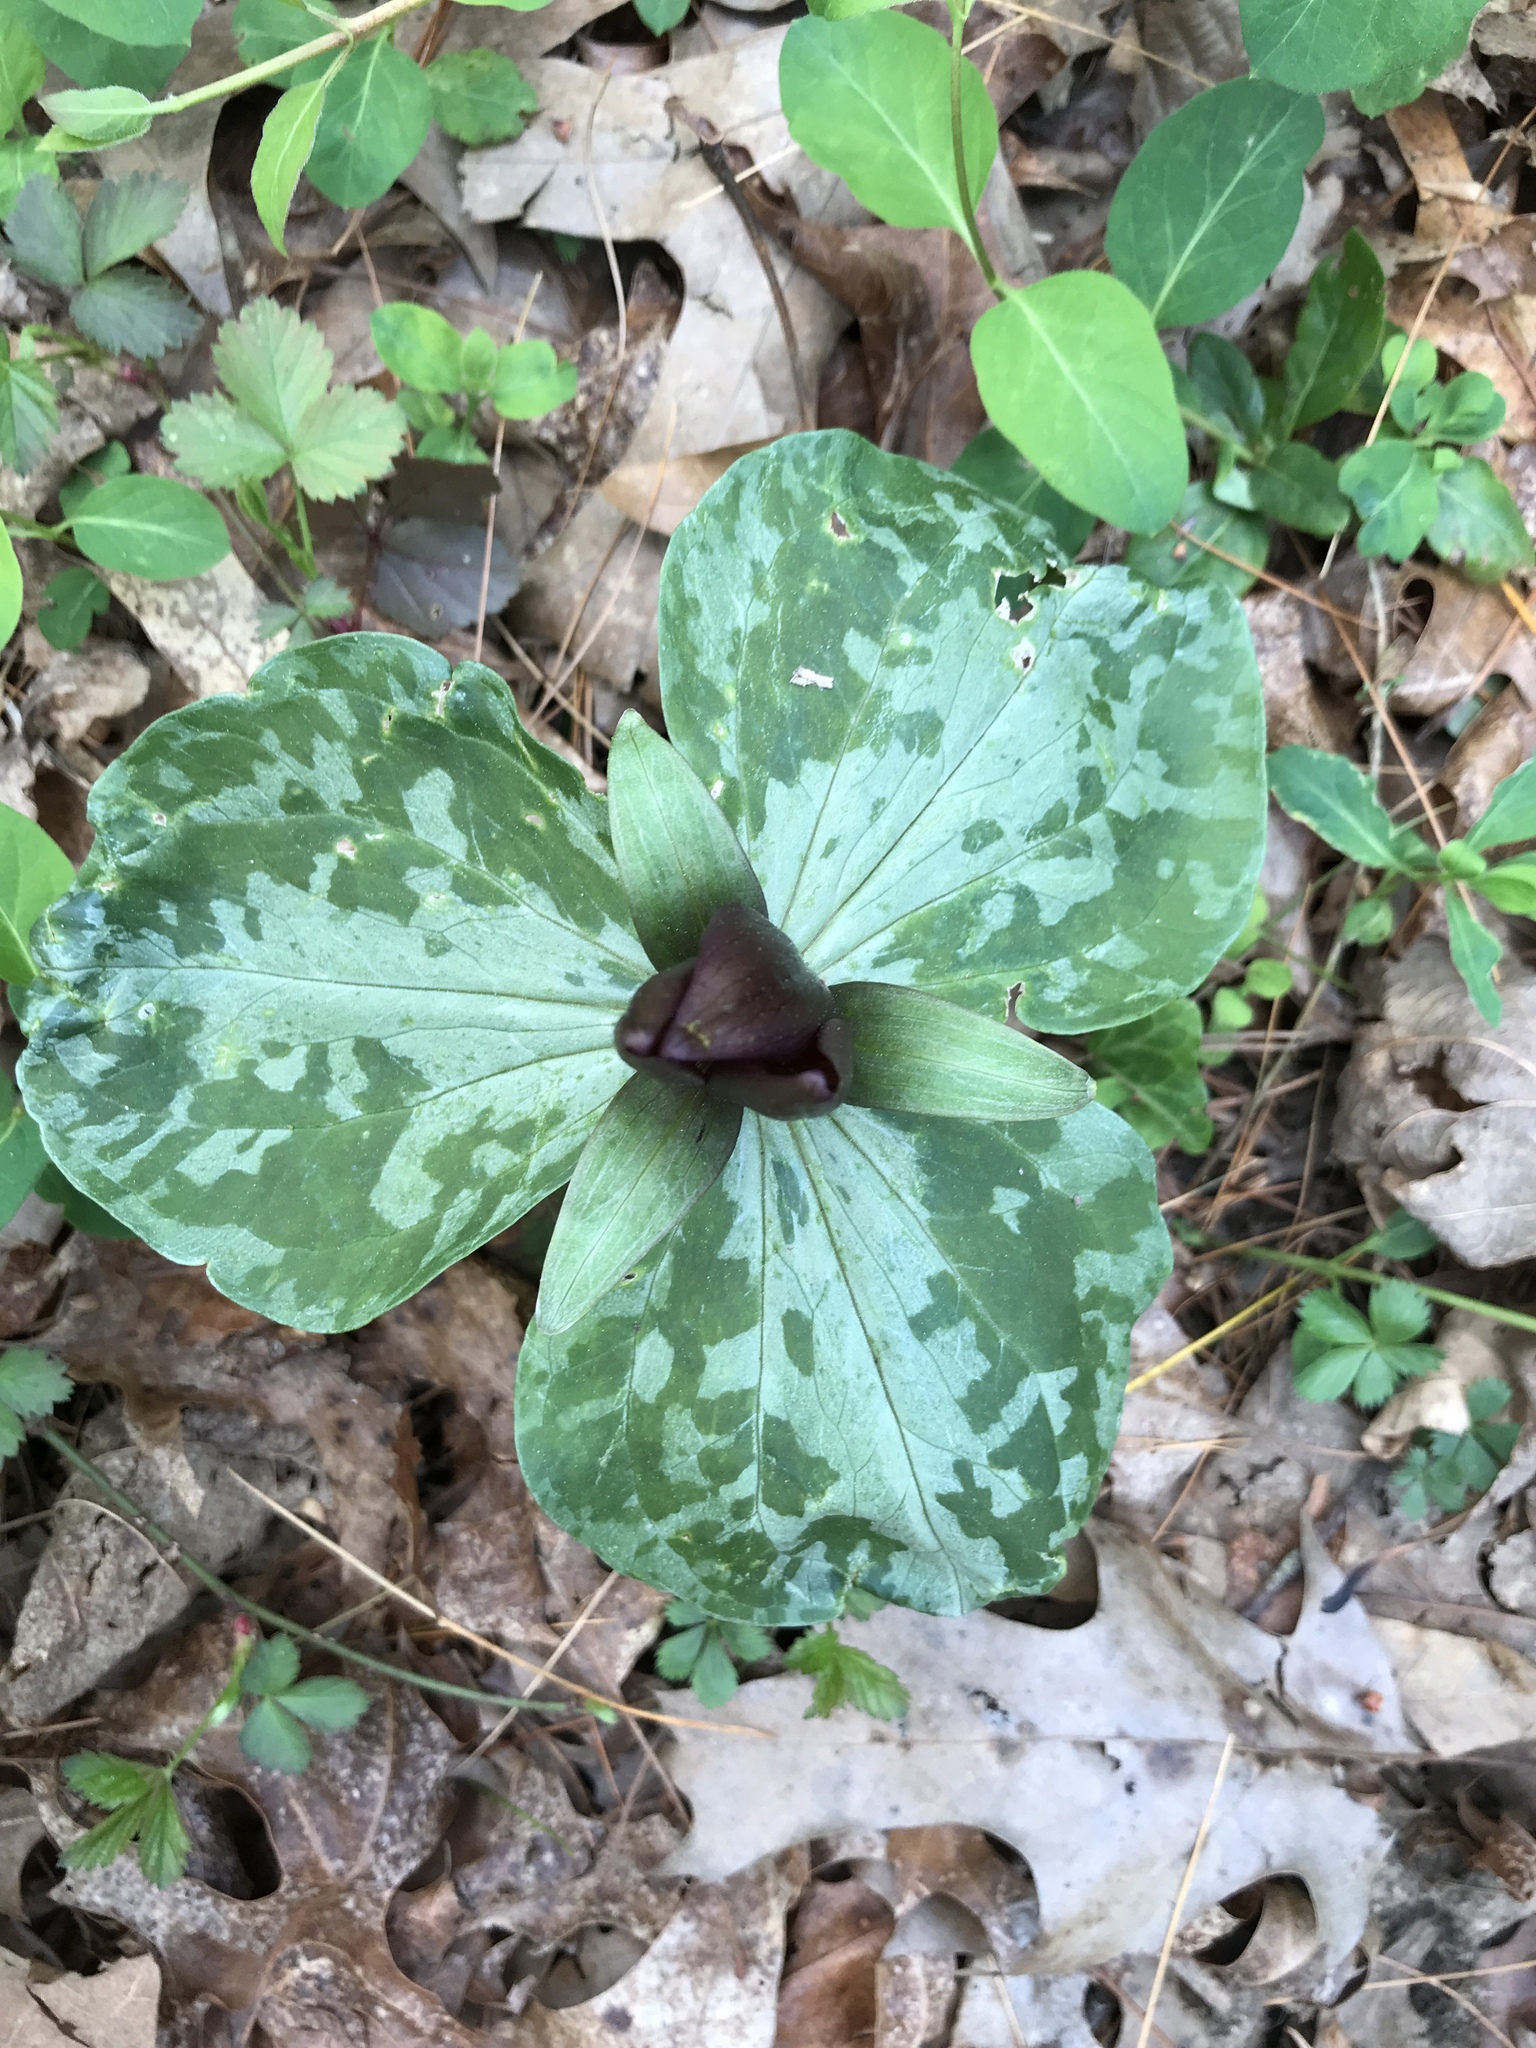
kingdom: Plantae
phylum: Tracheophyta
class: Liliopsida
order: Liliales
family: Melanthiaceae
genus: Trillium
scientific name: Trillium cuneatum
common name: Cuneate trillium
